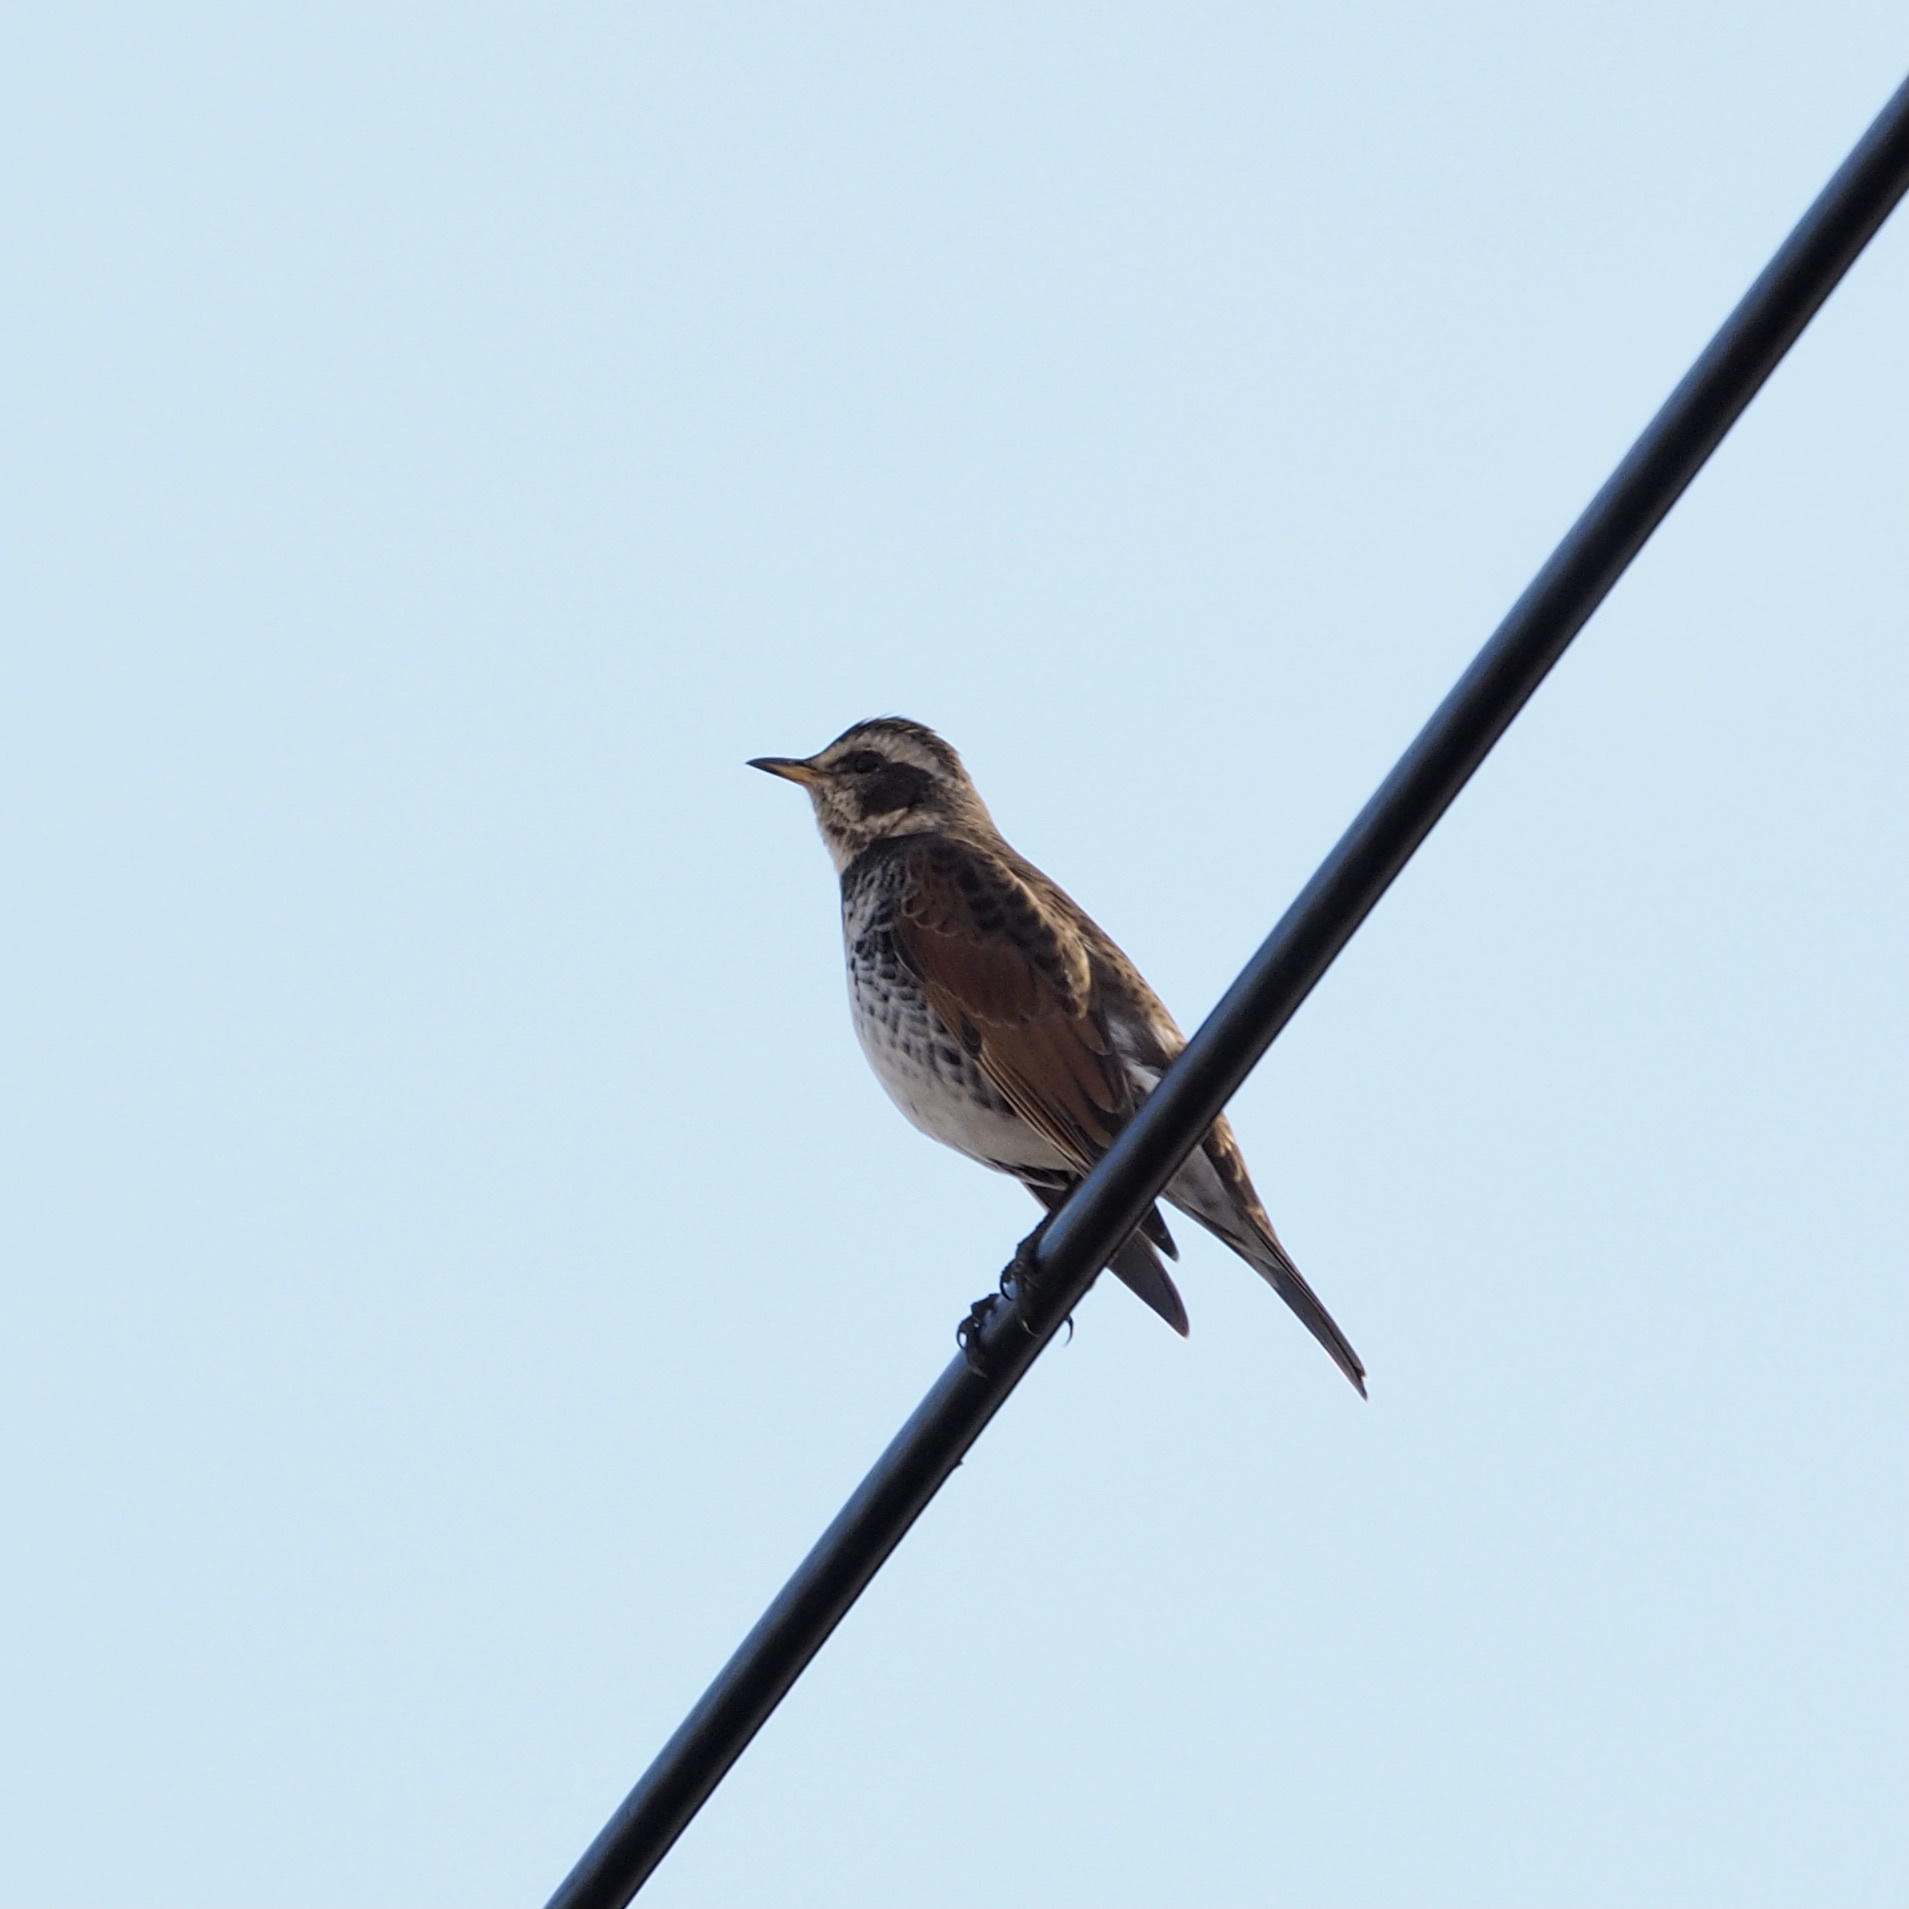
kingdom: Animalia
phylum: Chordata
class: Aves
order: Passeriformes
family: Turdidae
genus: Turdus
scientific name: Turdus eunomus
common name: Dusky thrush
